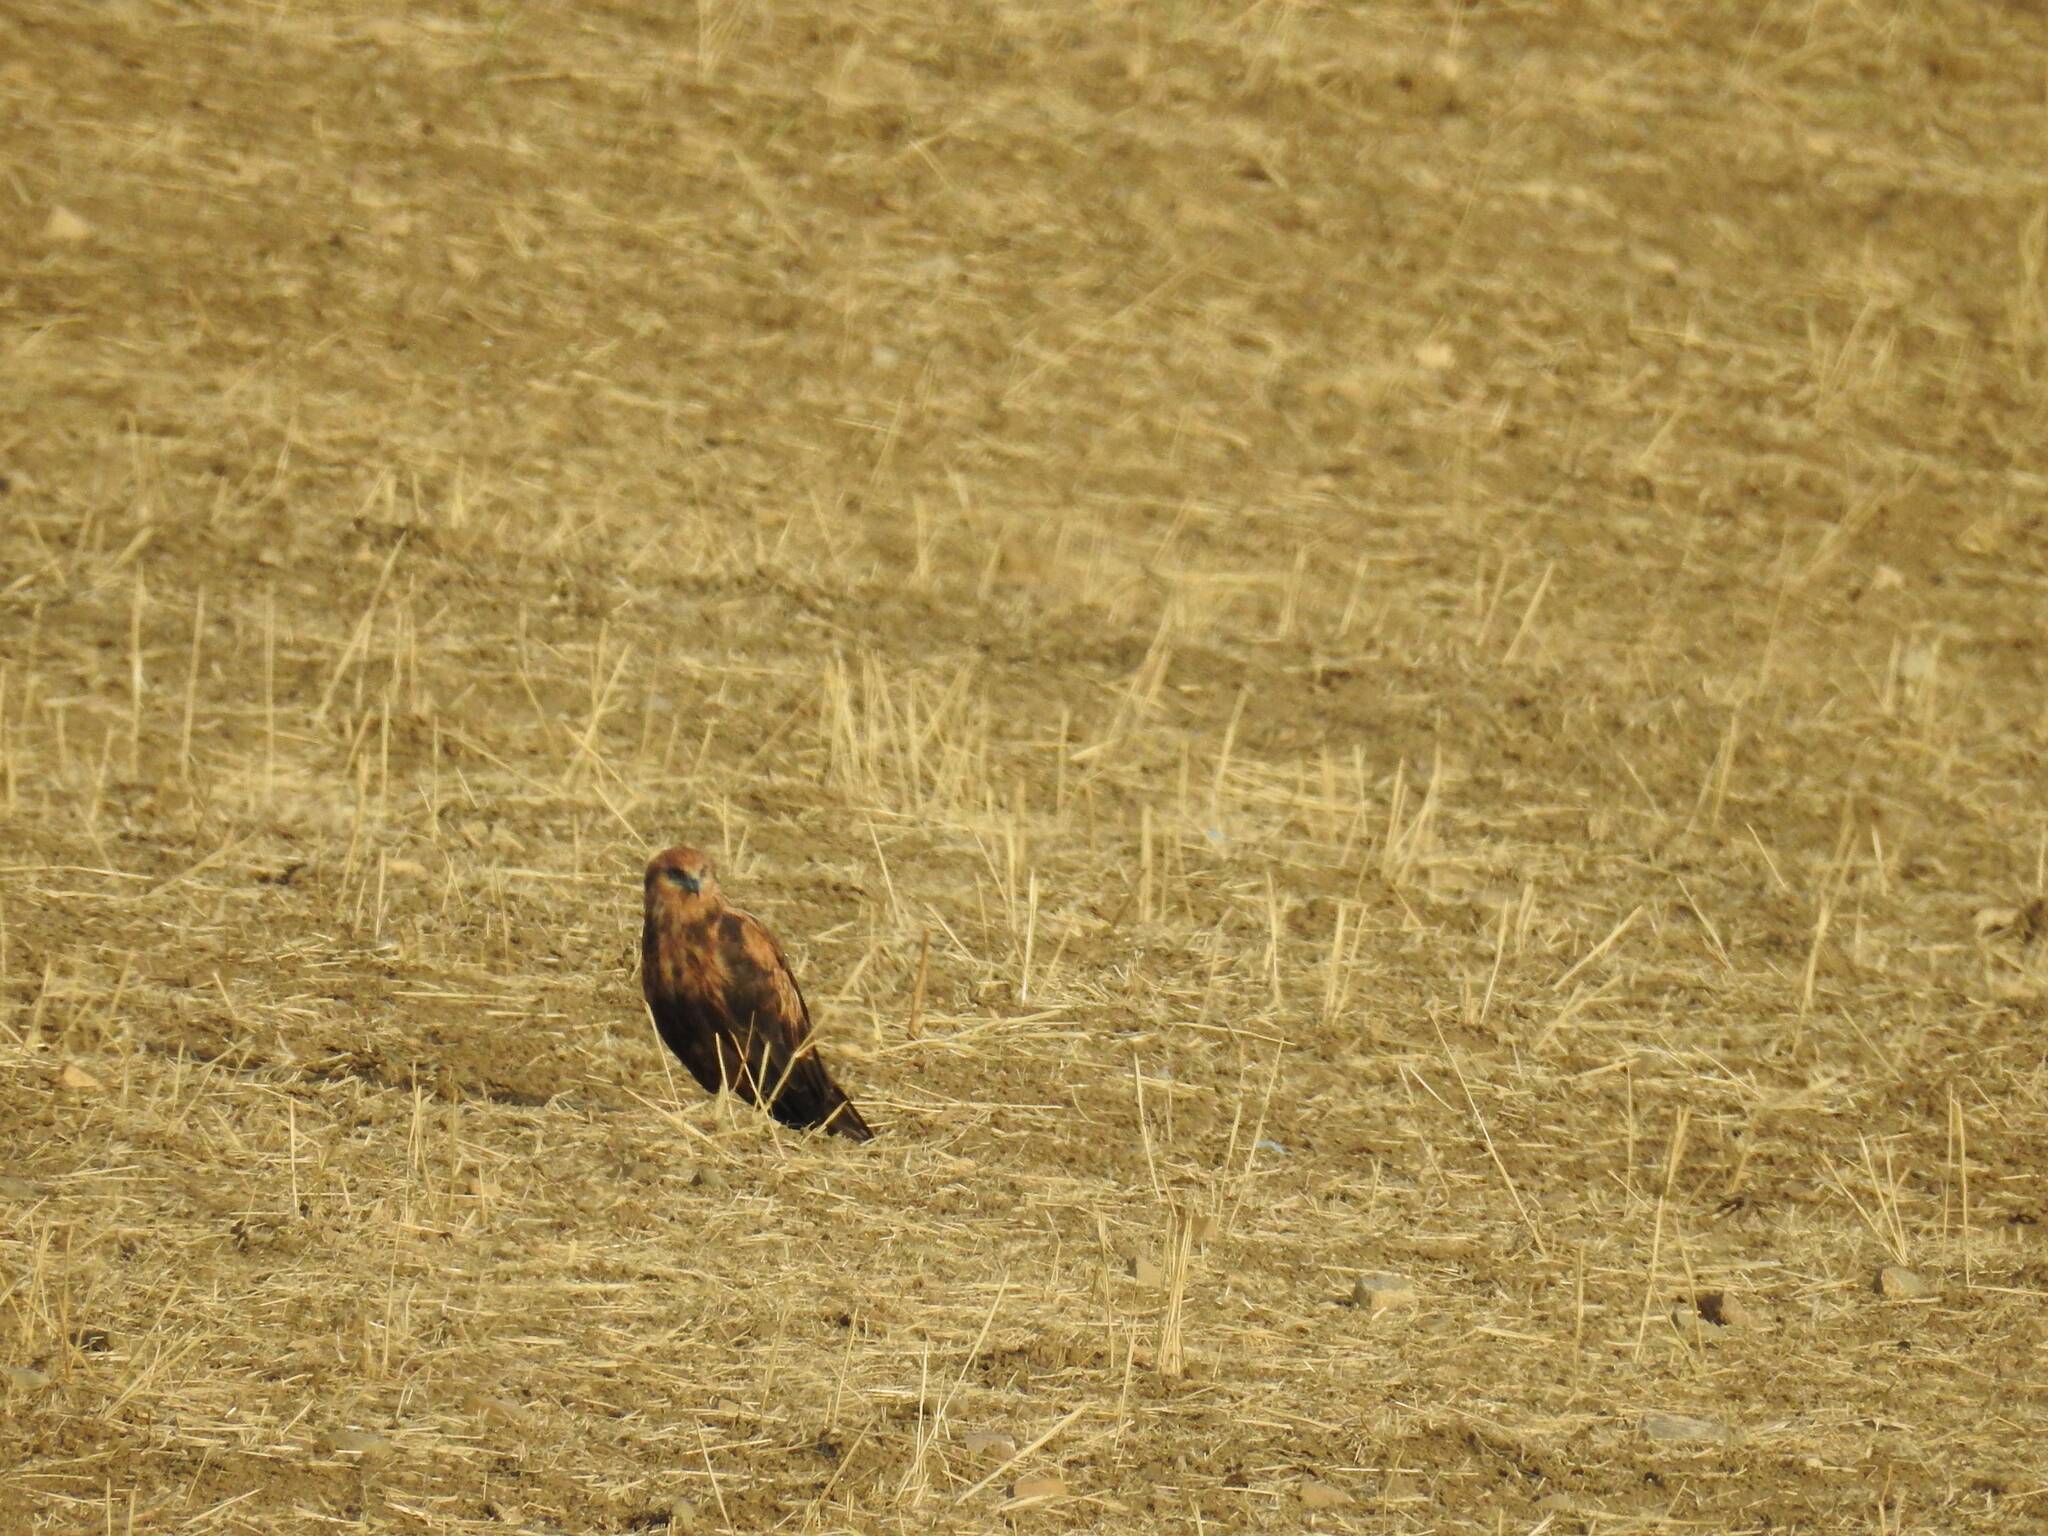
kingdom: Animalia
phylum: Chordata
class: Aves
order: Accipitriformes
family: Accipitridae
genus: Circus
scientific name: Circus aeruginosus
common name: Western marsh harrier
